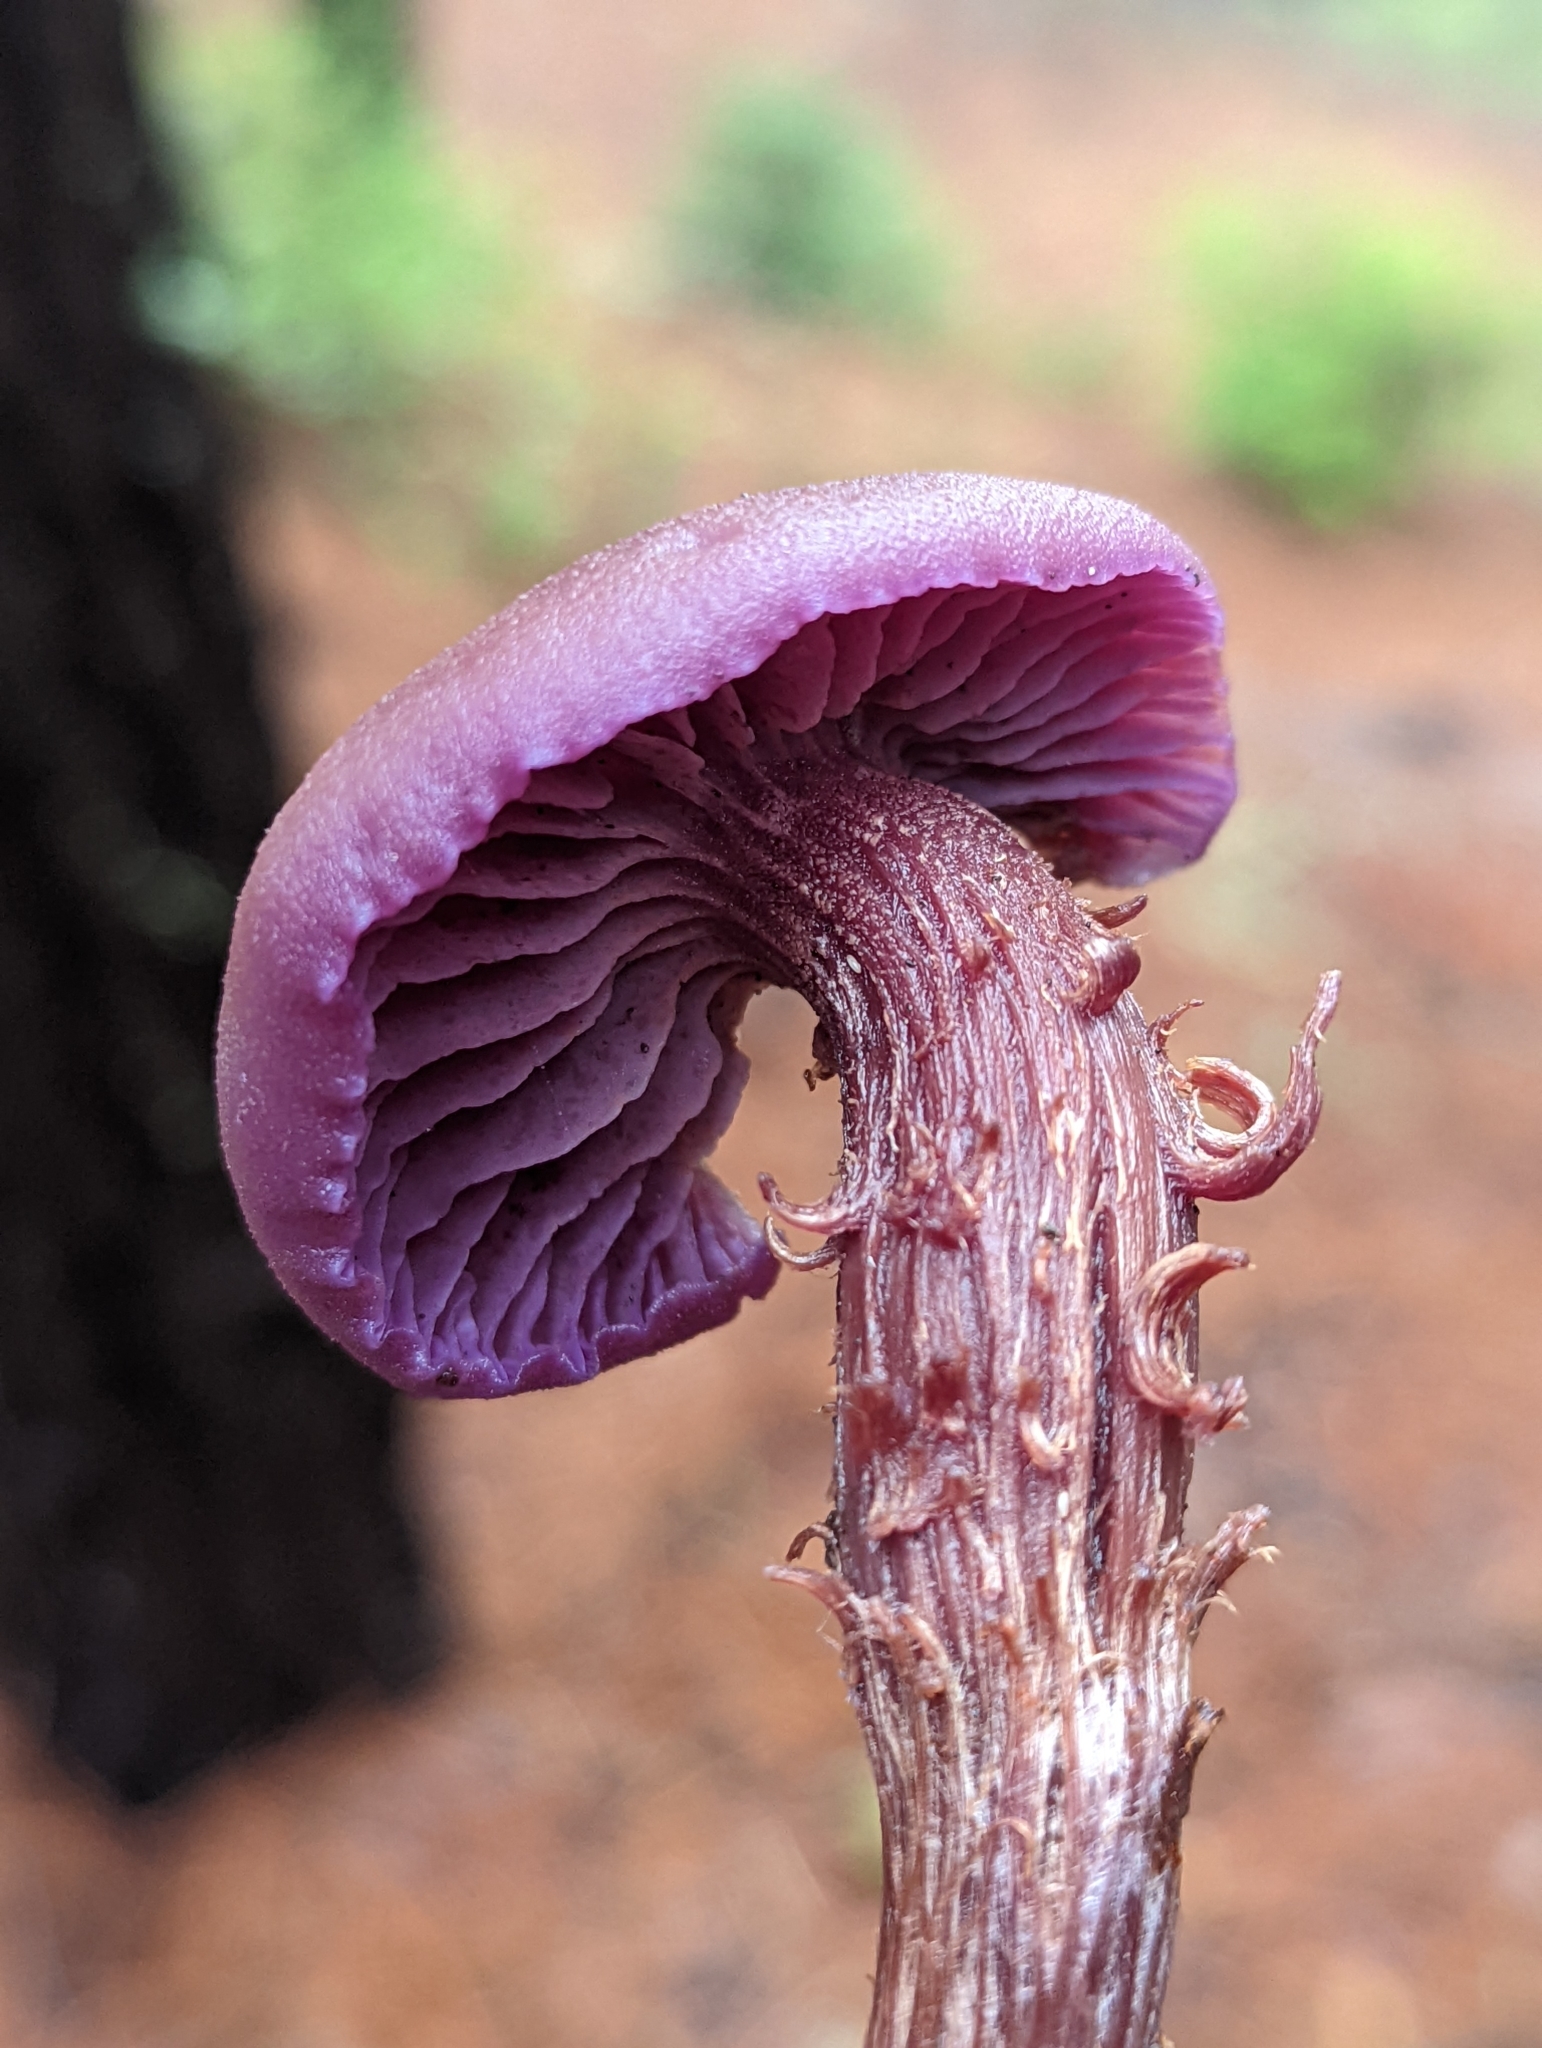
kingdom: Fungi
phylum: Basidiomycota
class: Agaricomycetes
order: Agaricales
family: Hydnangiaceae
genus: Laccaria
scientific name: Laccaria amethysteo-occidentalis
